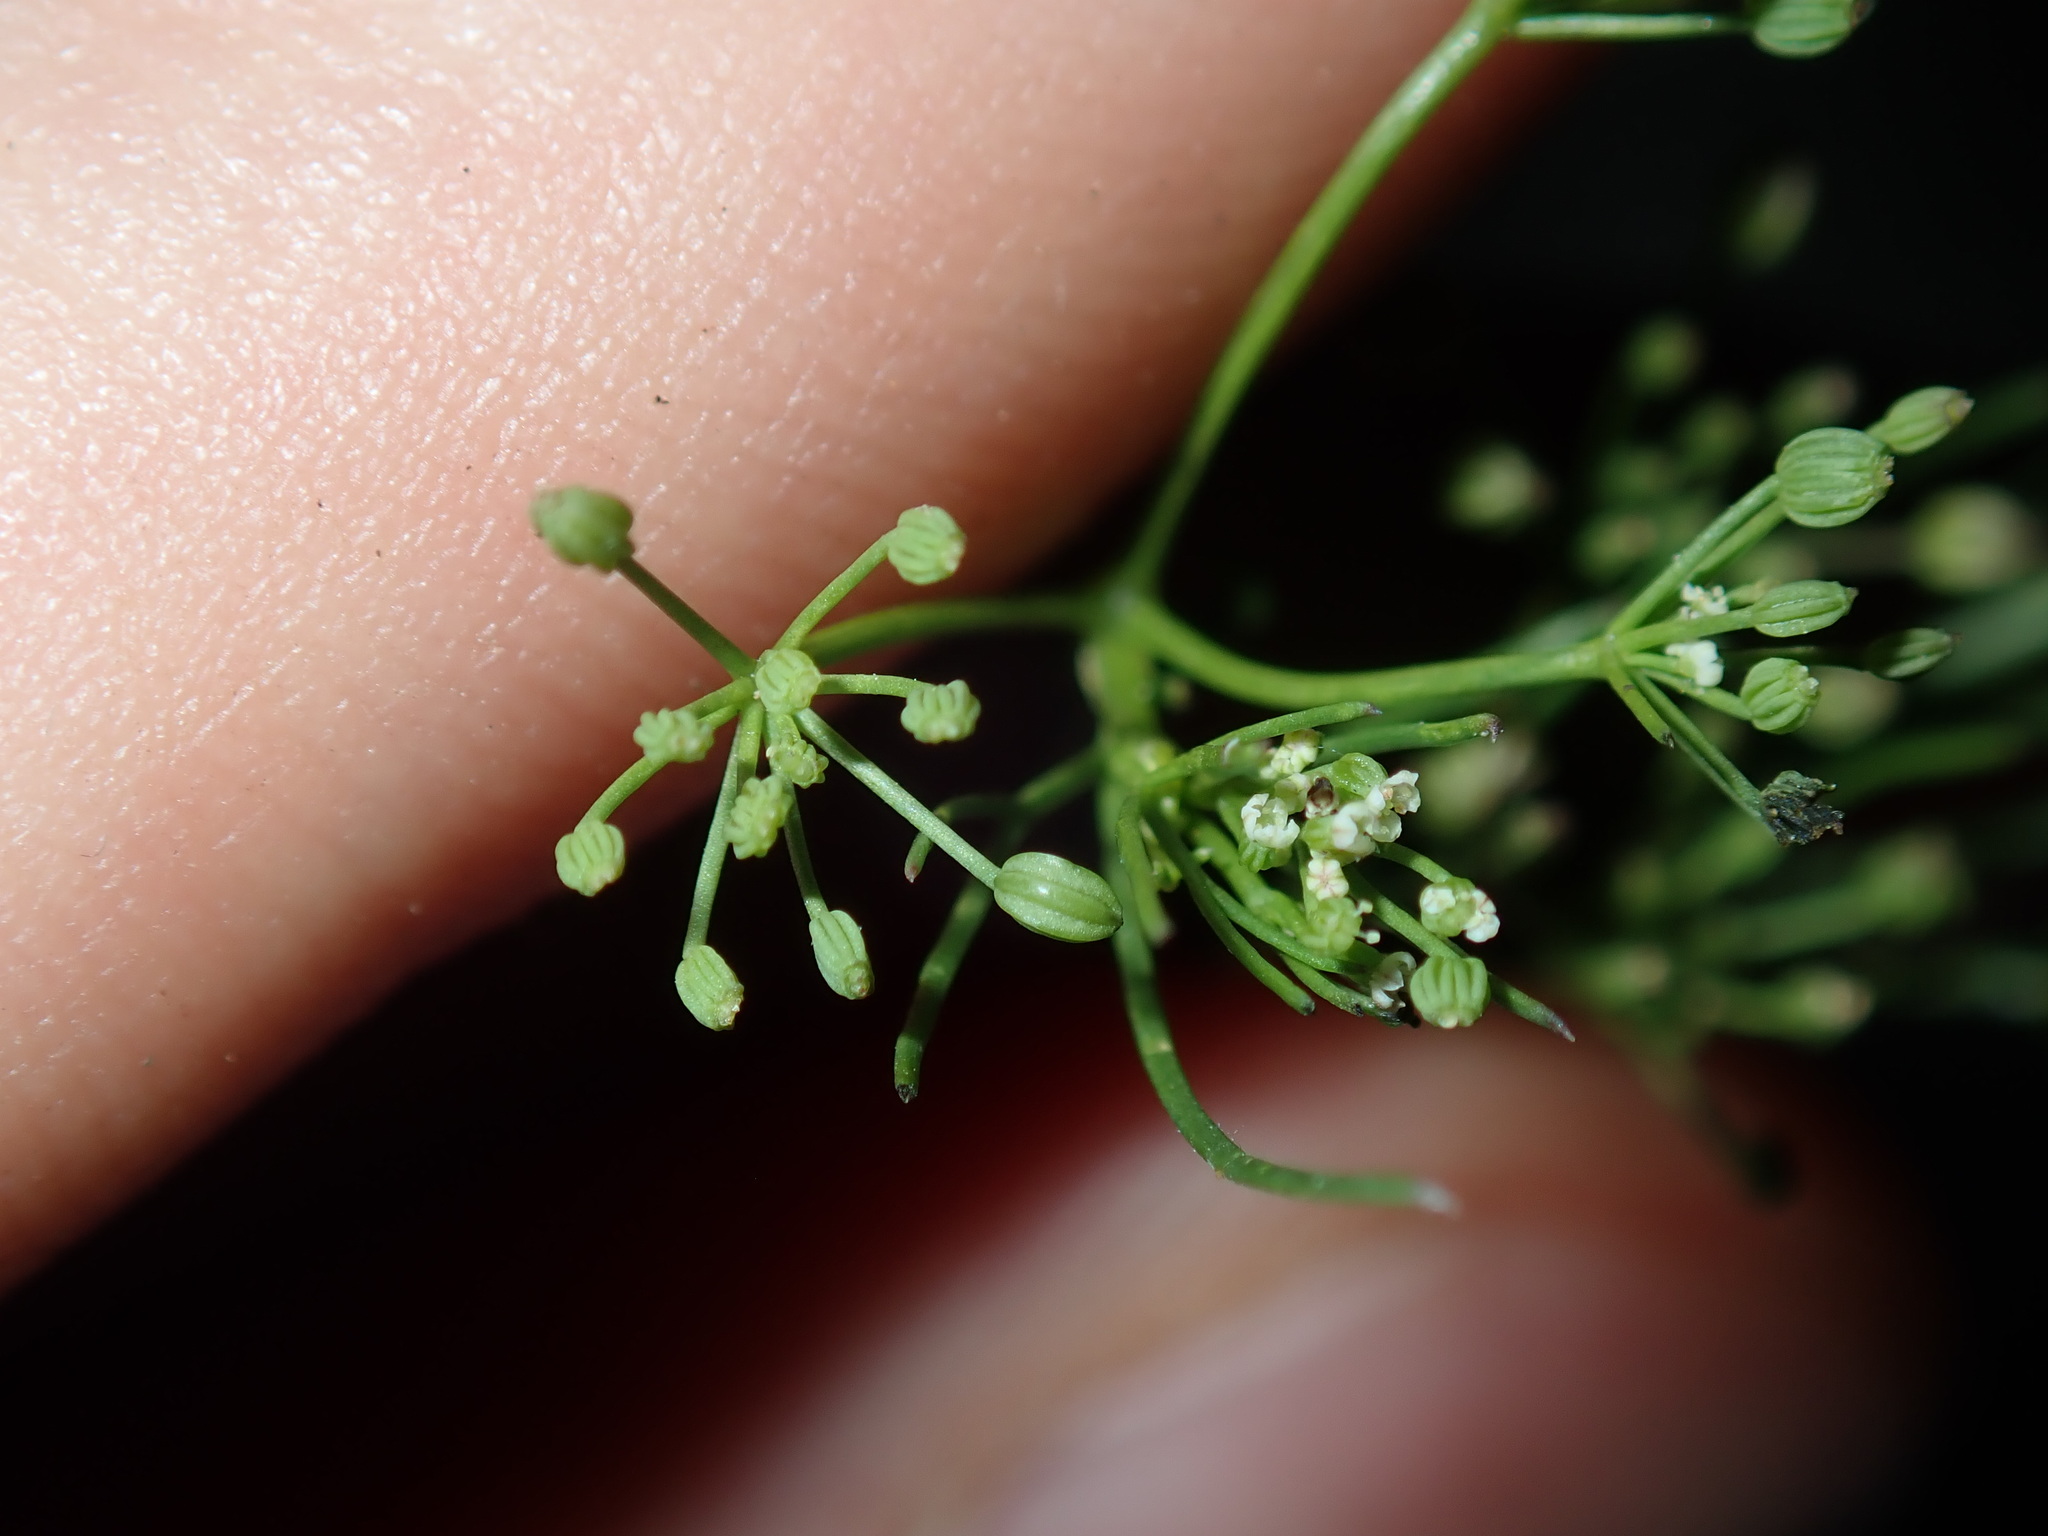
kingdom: Plantae
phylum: Tracheophyta
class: Magnoliopsida
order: Apiales
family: Apiaceae
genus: Cyclospermum
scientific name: Cyclospermum leptophyllum
